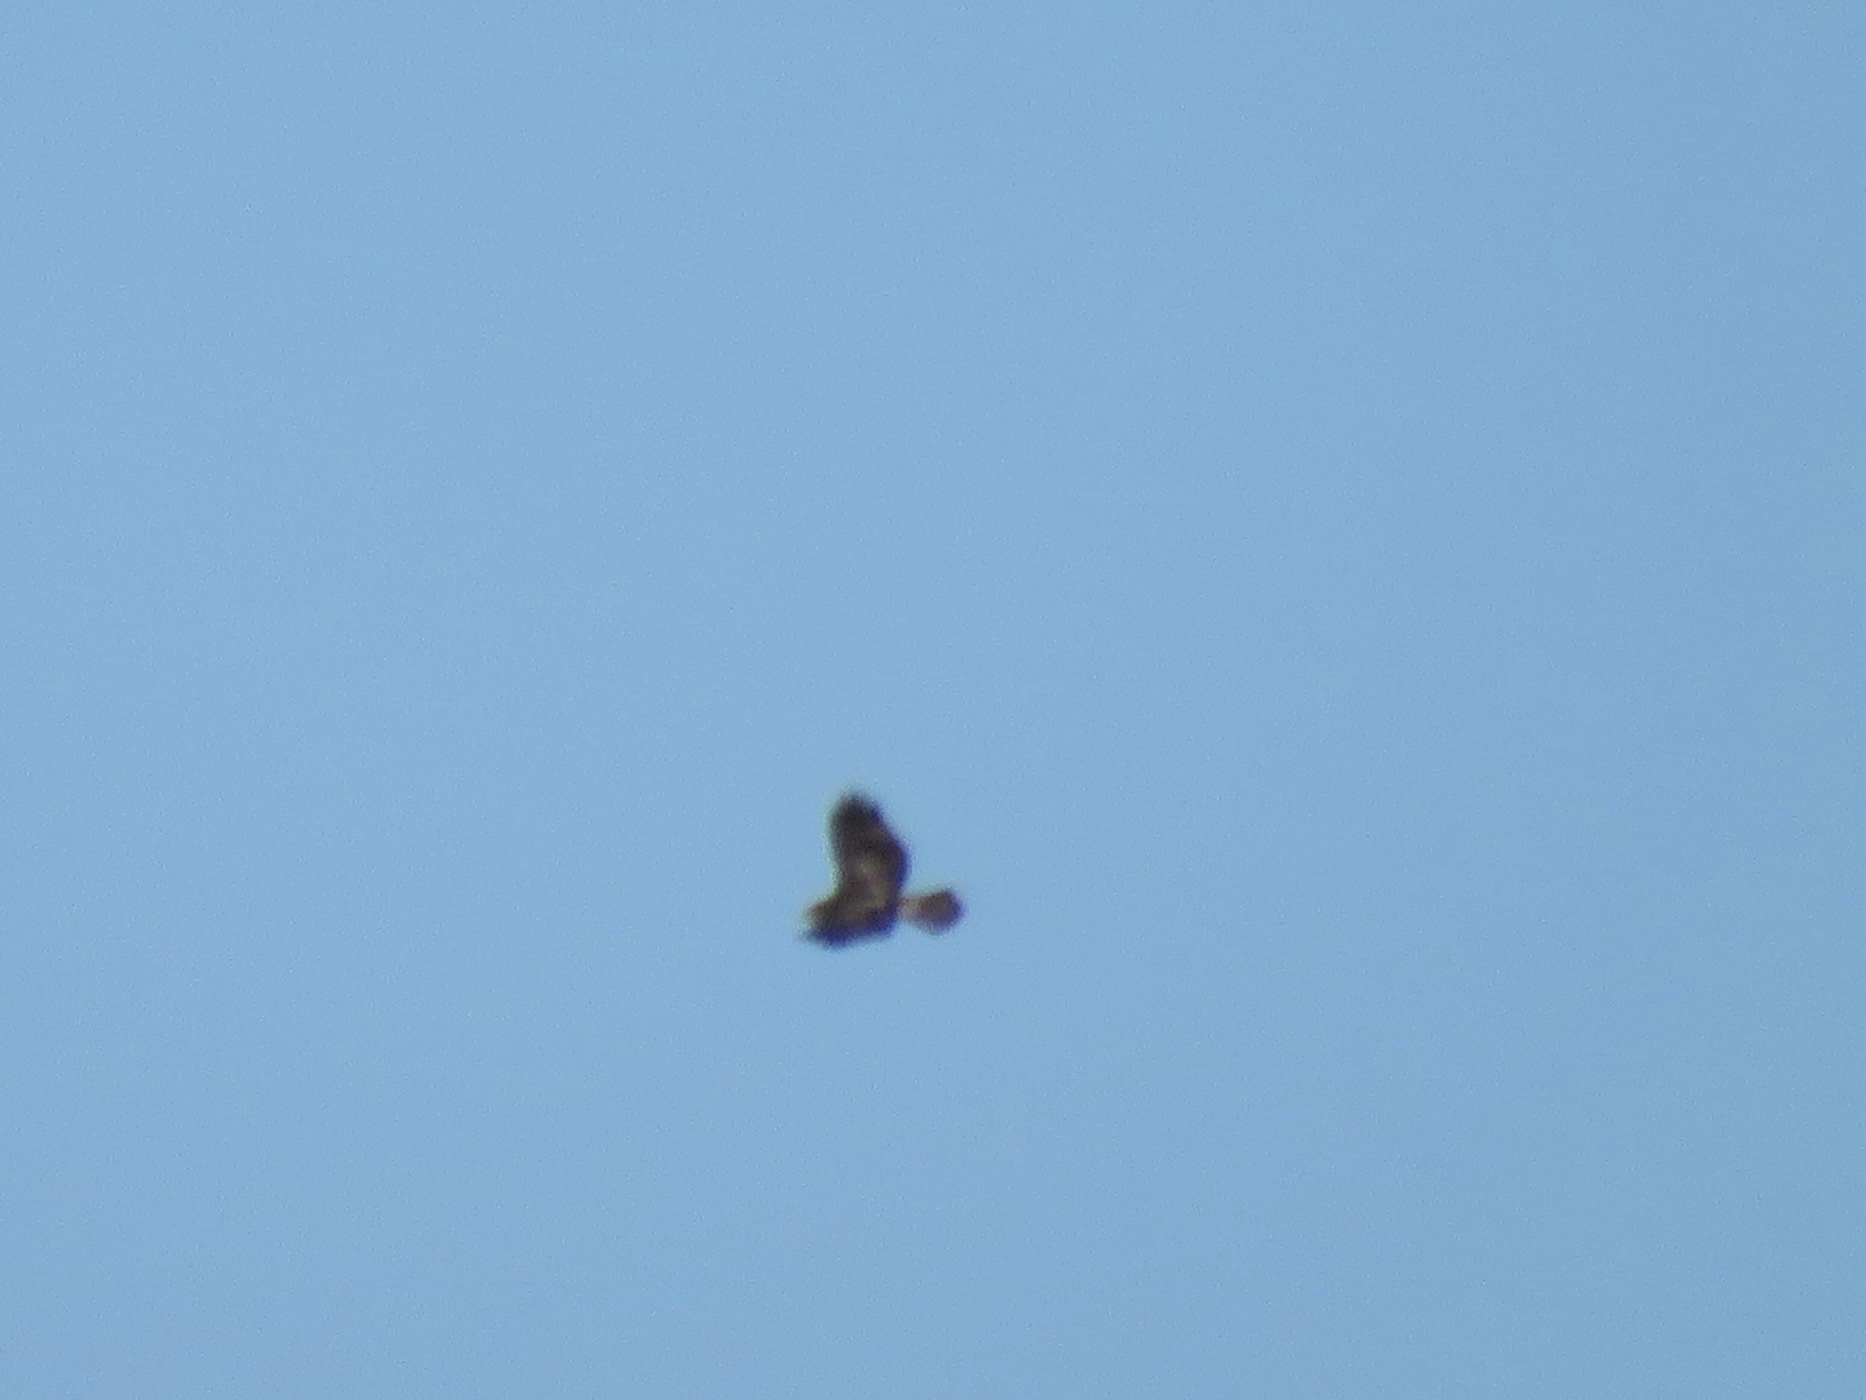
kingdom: Animalia
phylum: Chordata
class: Aves
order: Accipitriformes
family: Accipitridae
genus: Buteo
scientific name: Buteo jamaicensis
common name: Red-tailed hawk
